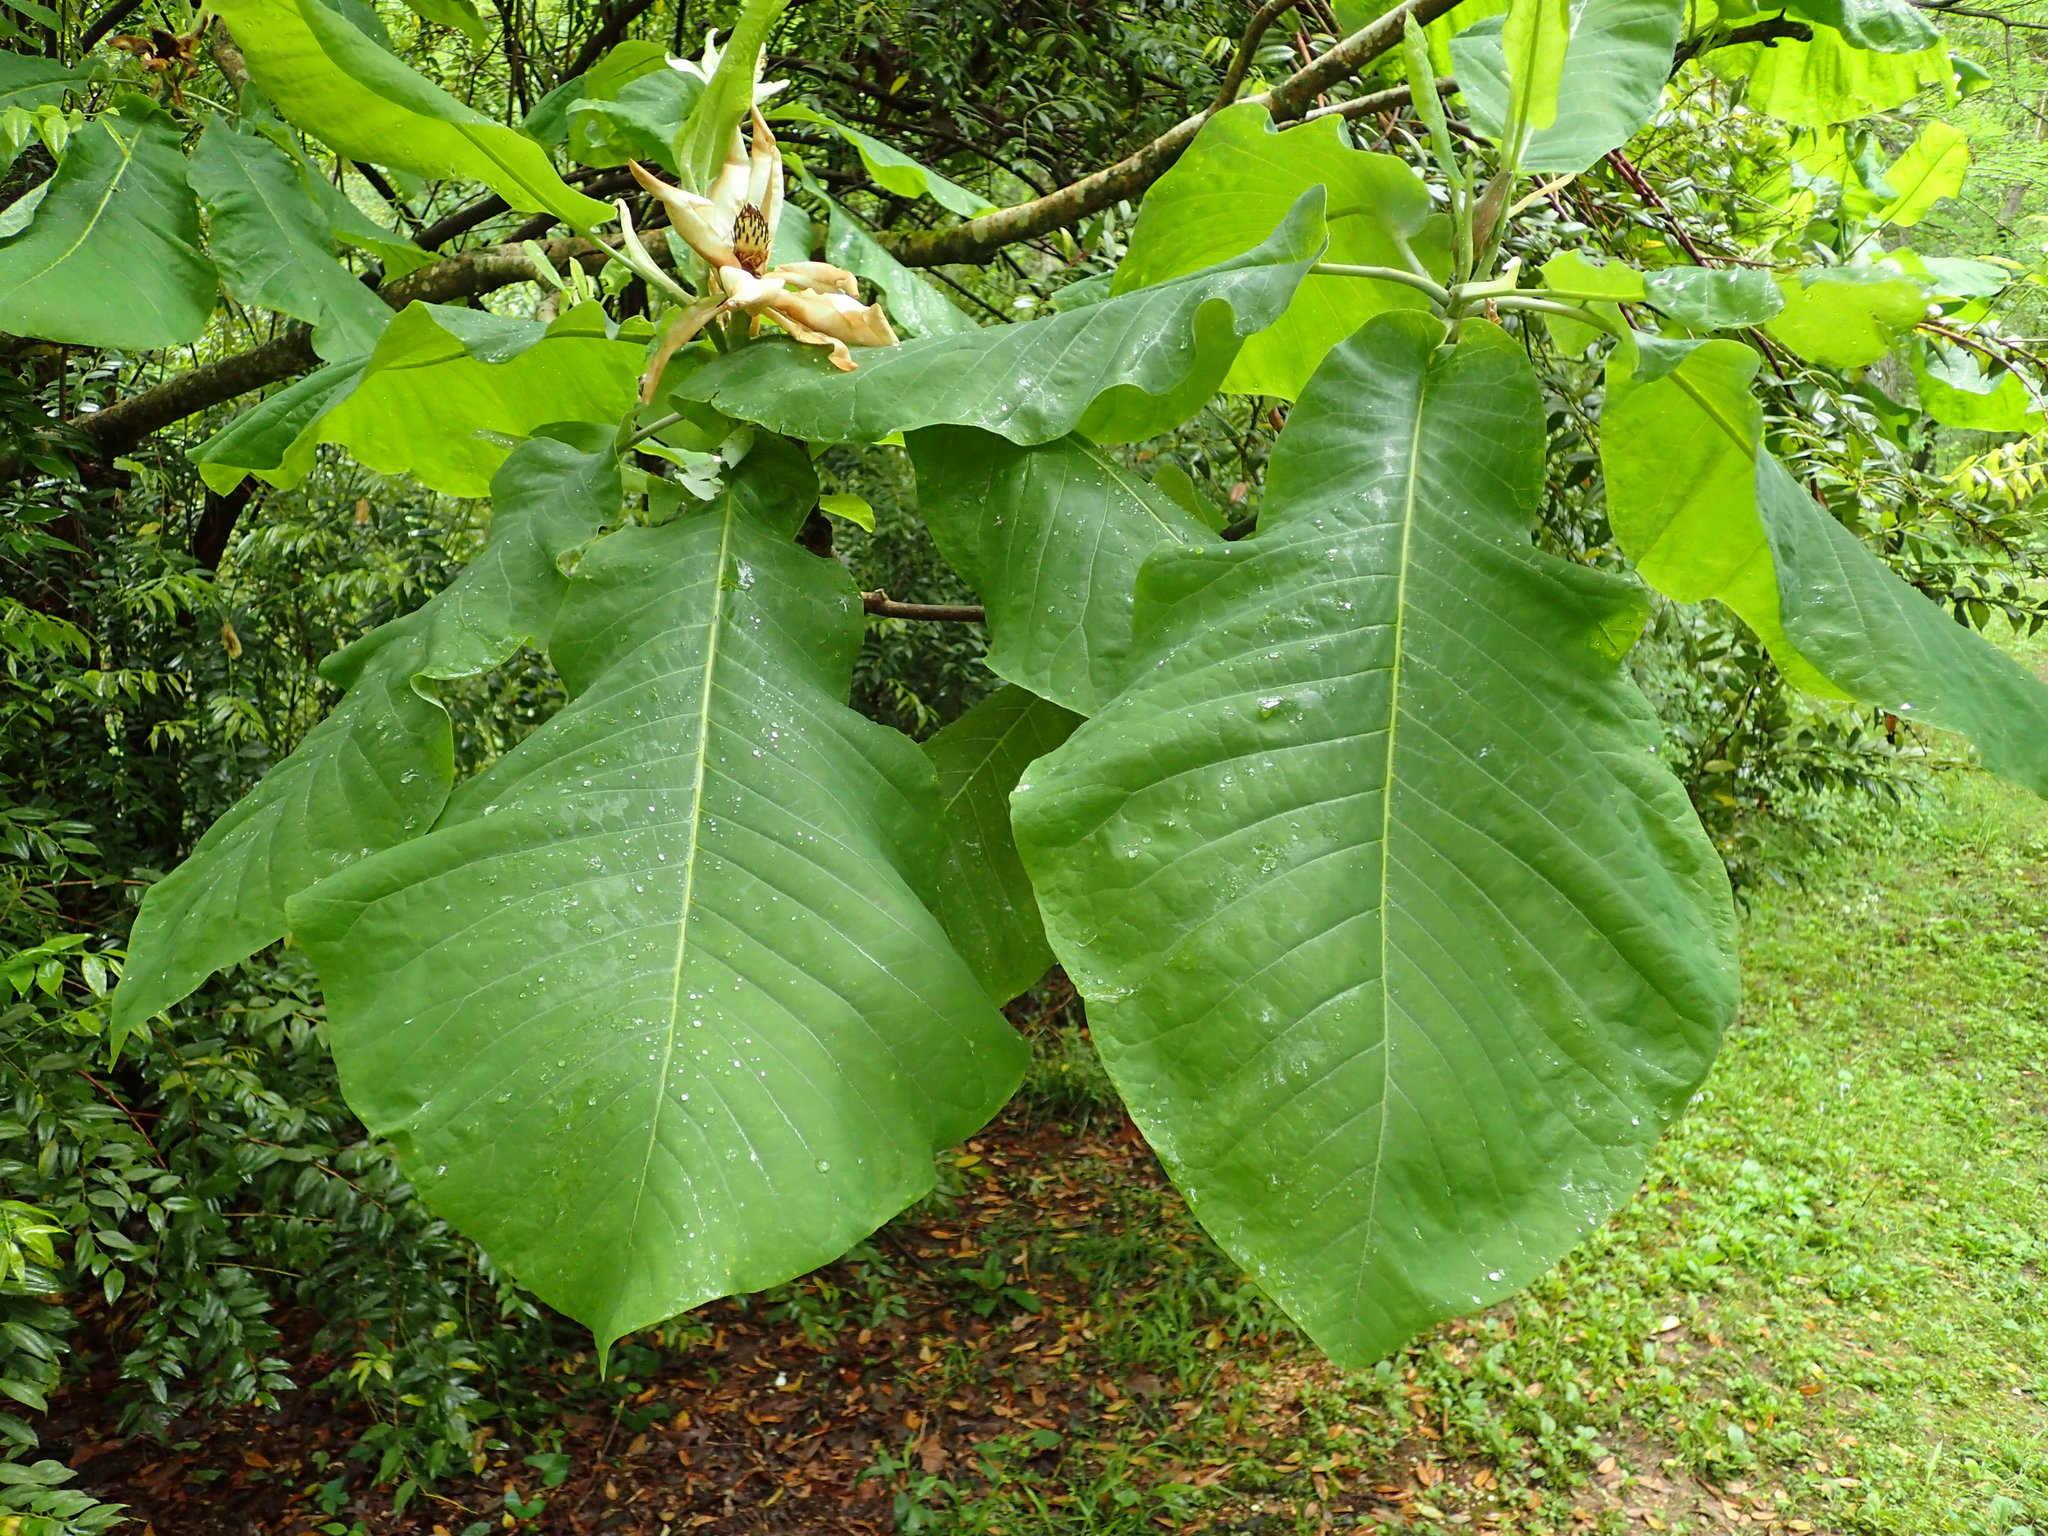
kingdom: Plantae
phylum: Tracheophyta
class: Magnoliopsida
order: Magnoliales
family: Magnoliaceae
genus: Magnolia
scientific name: Magnolia macrophylla
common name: Big-leaf magnolia
